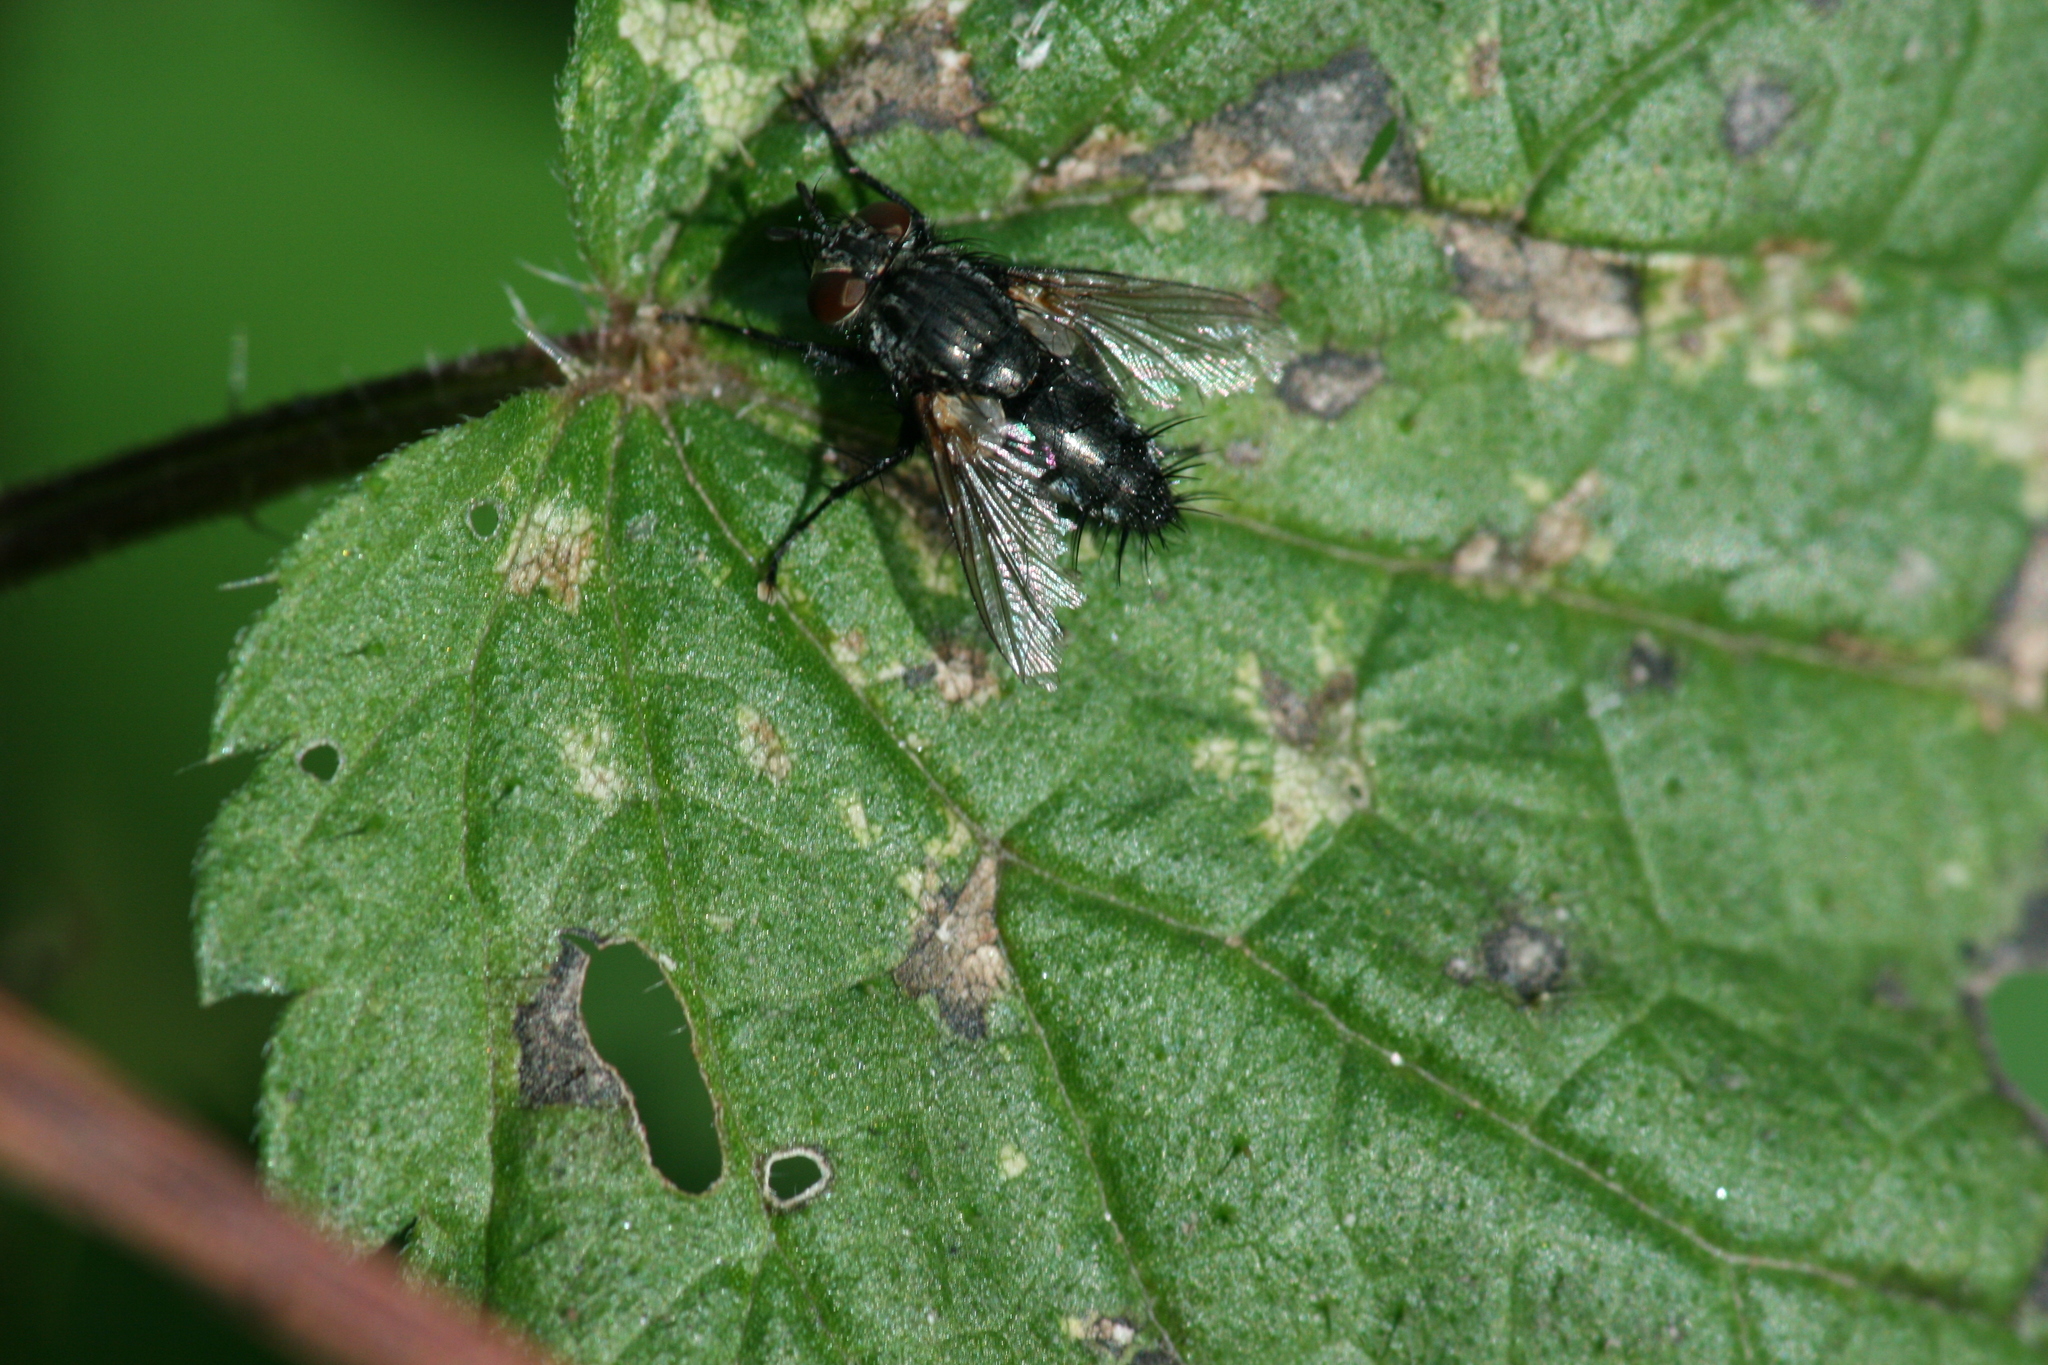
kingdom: Animalia
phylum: Arthropoda
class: Insecta
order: Diptera
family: Tachinidae
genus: Voria
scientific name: Voria ruralis
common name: Parasitic fly
